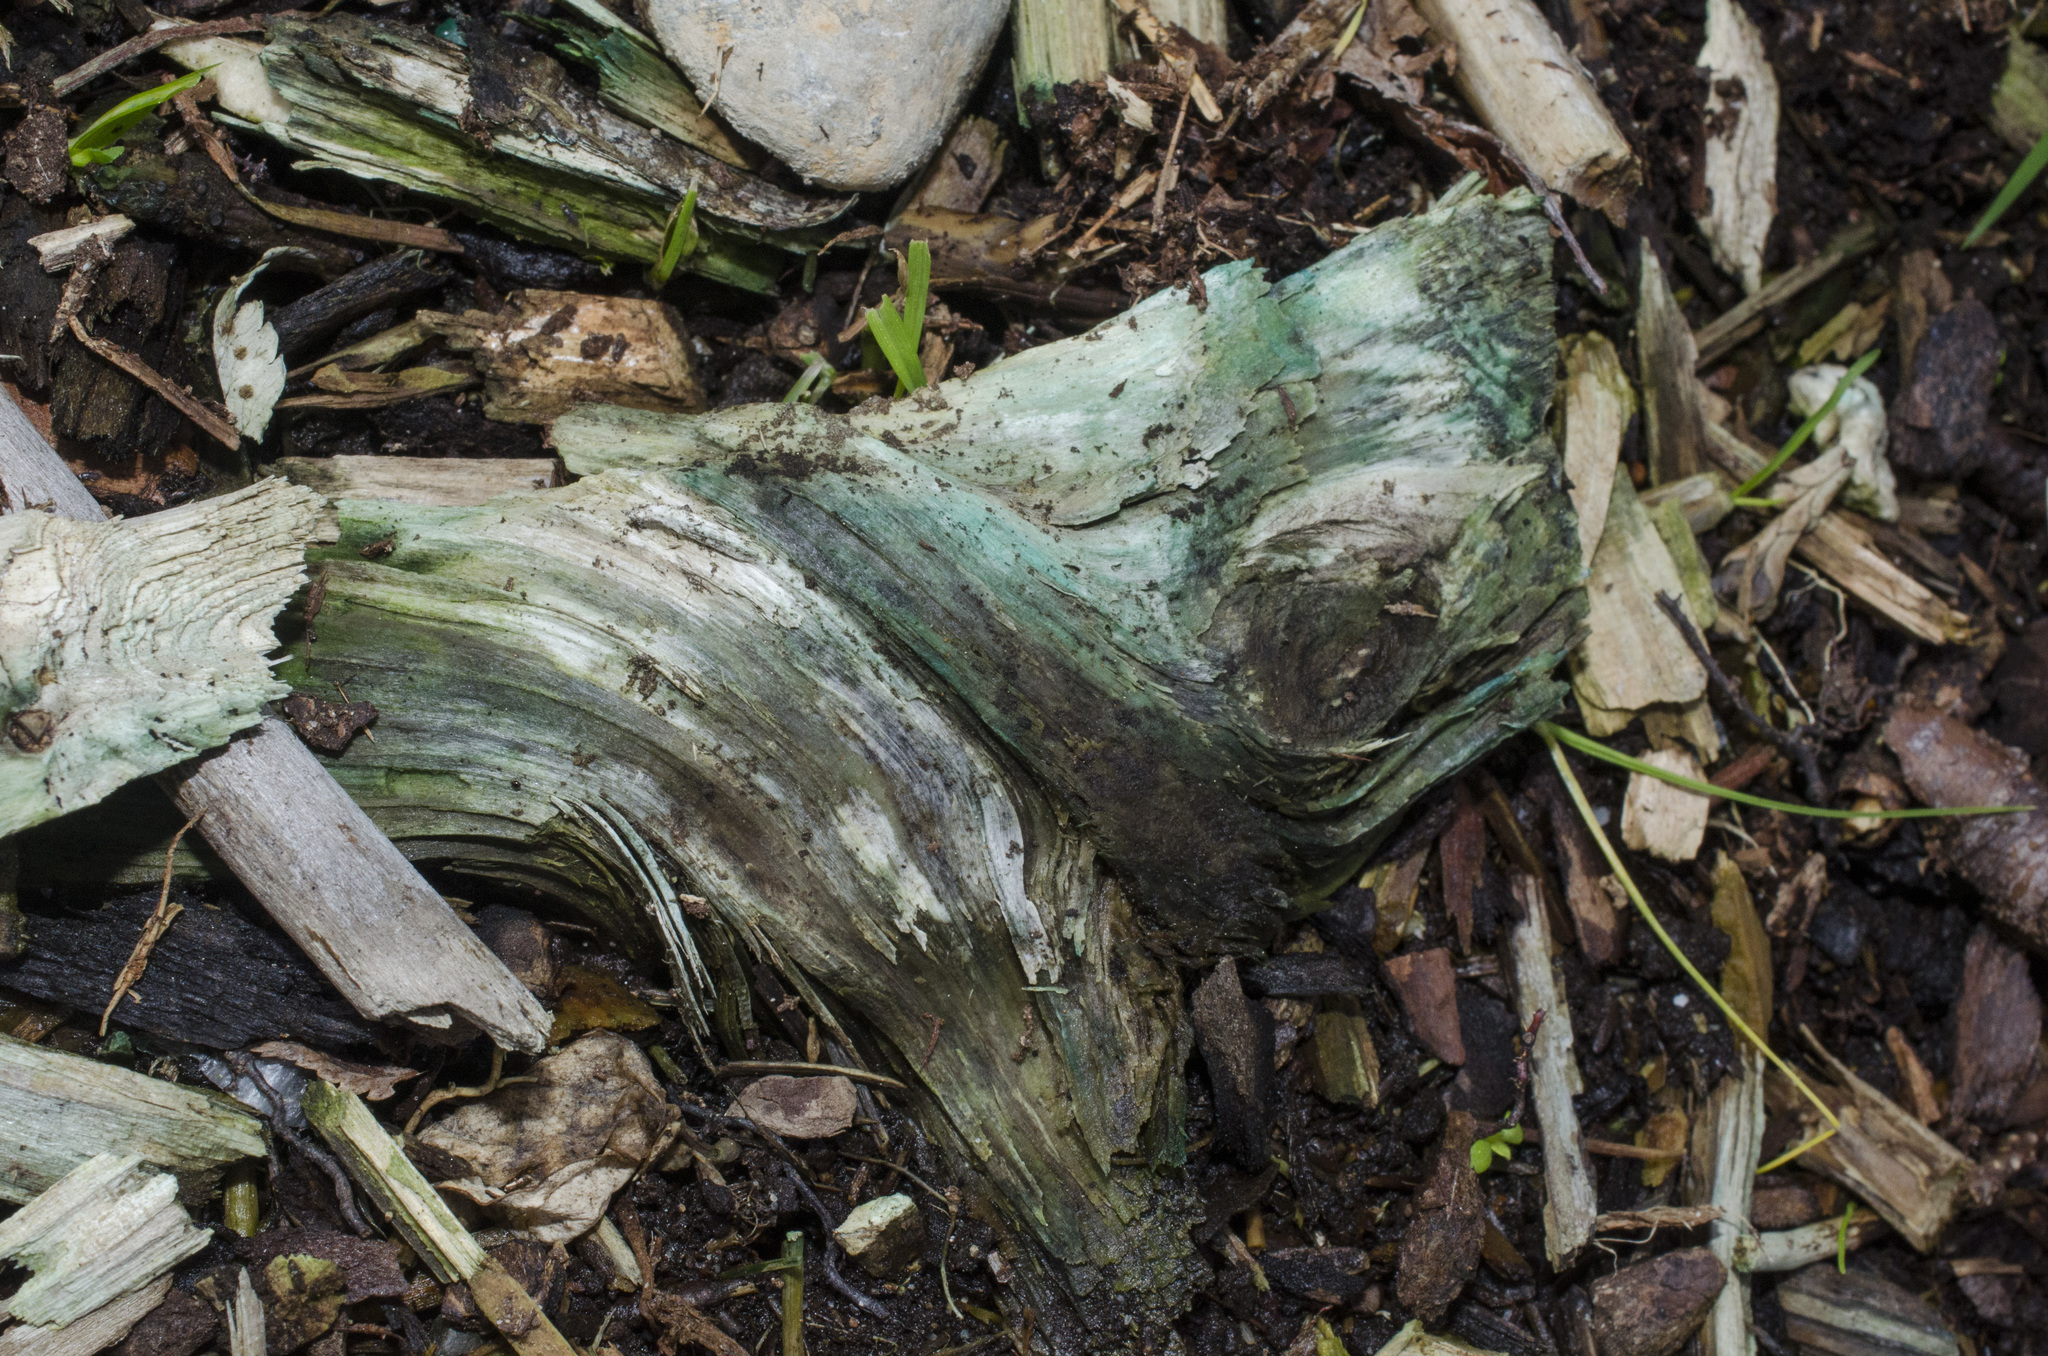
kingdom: Fungi
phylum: Ascomycota
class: Leotiomycetes
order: Helotiales
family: Chlorociboriaceae
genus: Chlorociboria
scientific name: Chlorociboria
